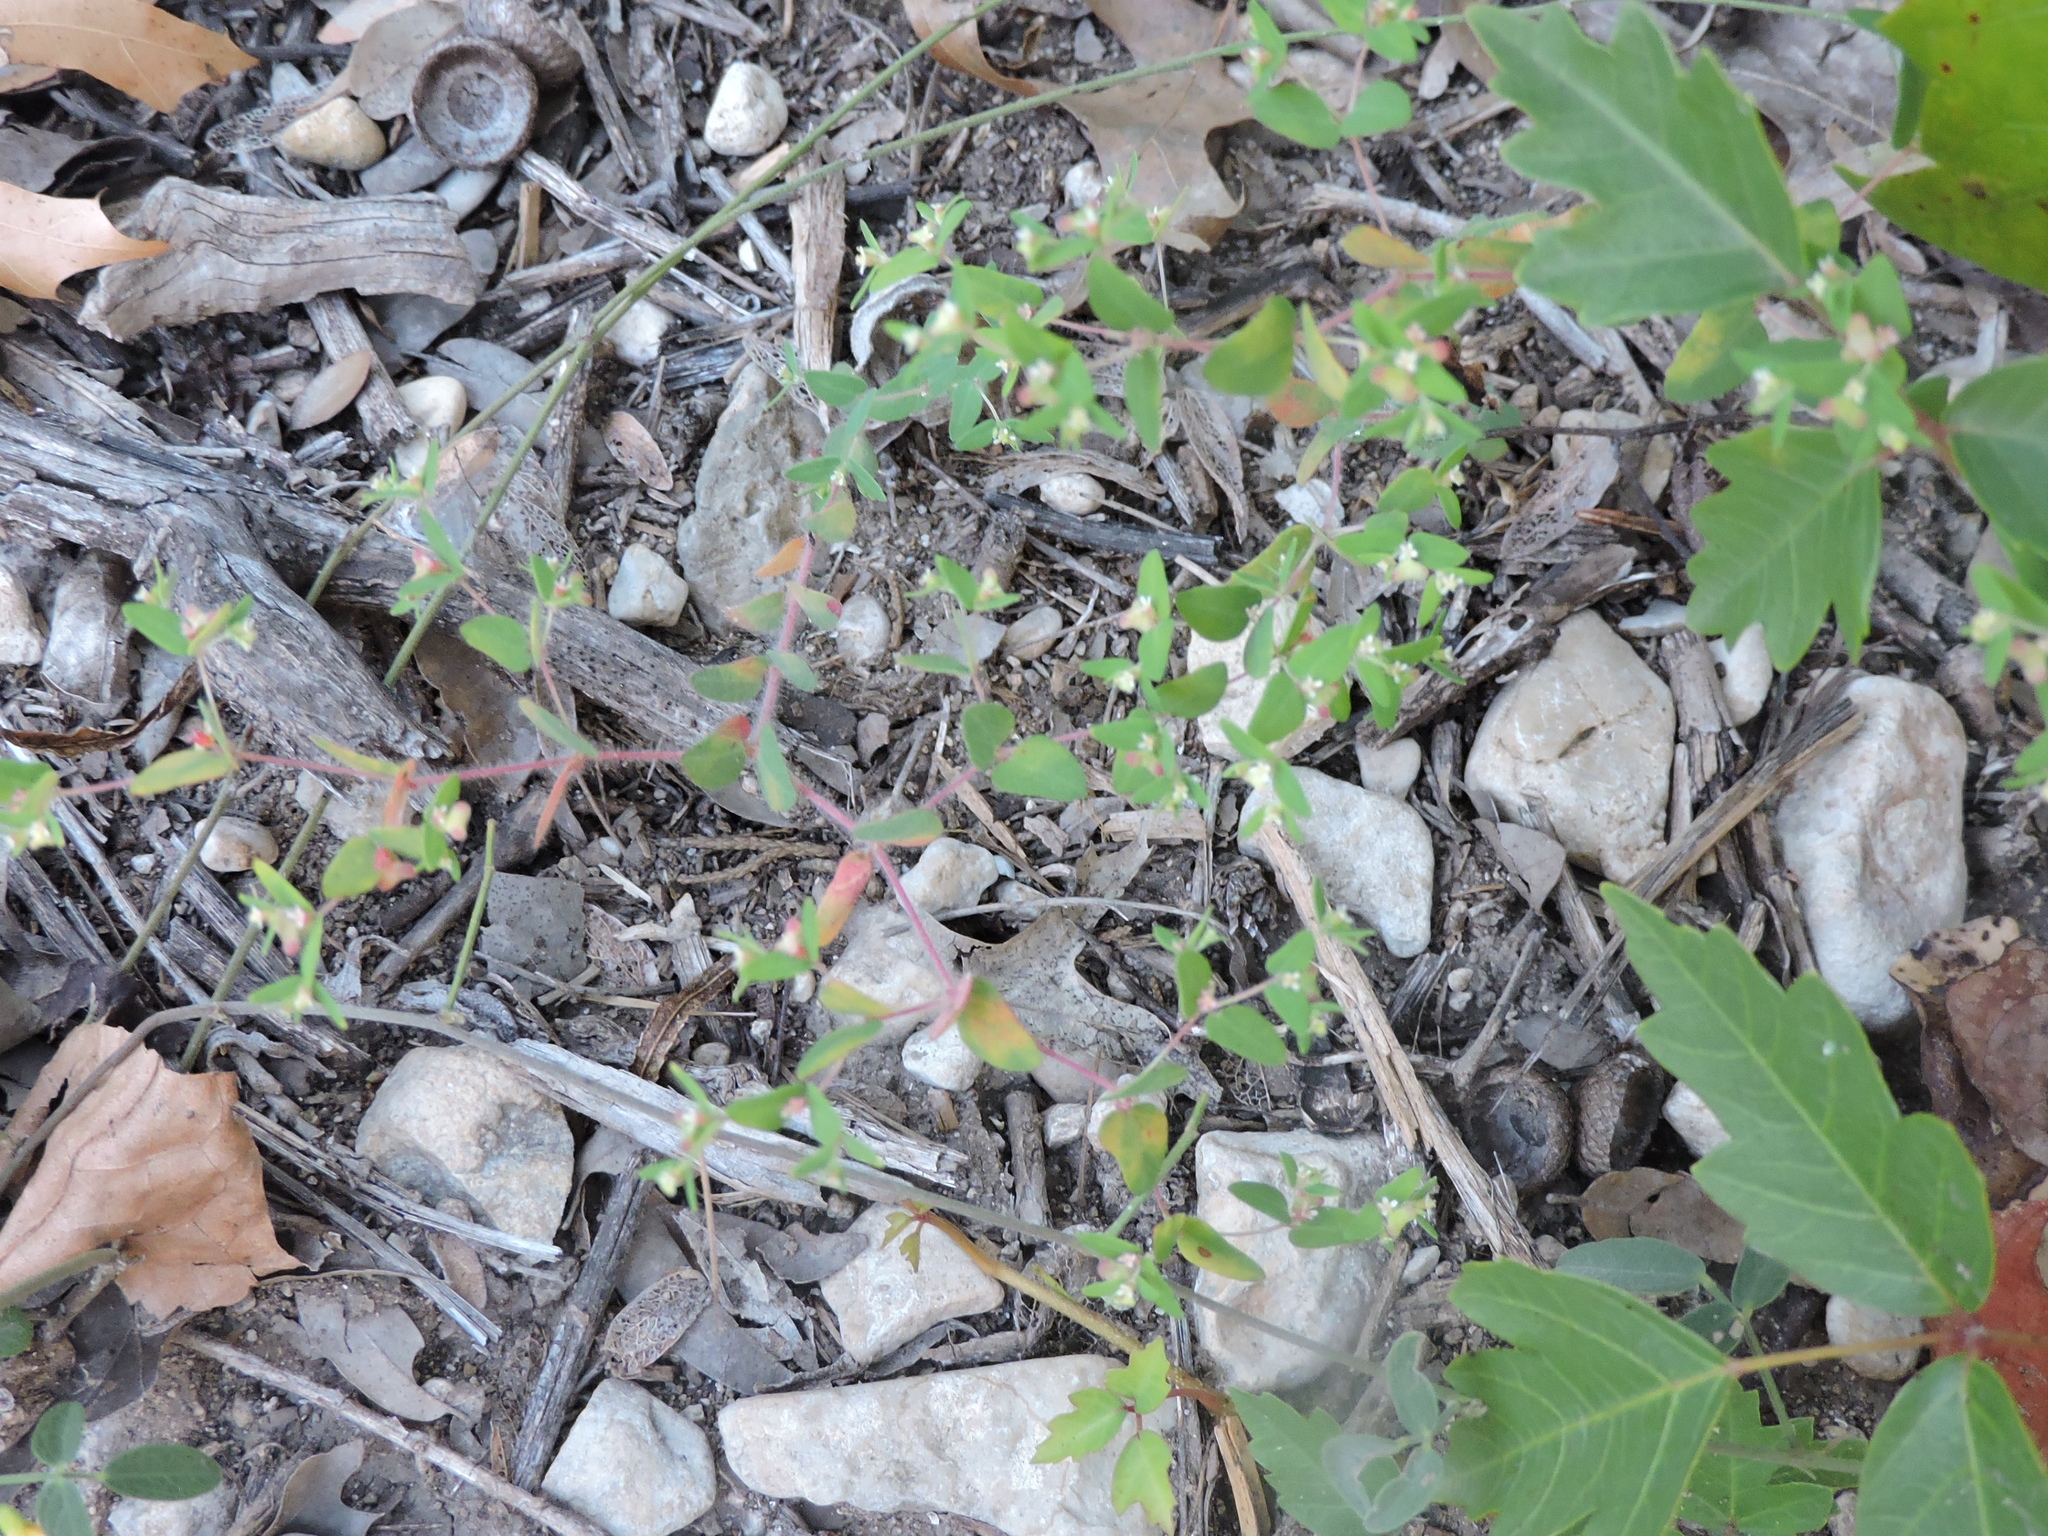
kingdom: Plantae
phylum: Tracheophyta
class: Magnoliopsida
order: Malpighiales
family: Euphorbiaceae
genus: Euphorbia
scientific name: Euphorbia villifera
